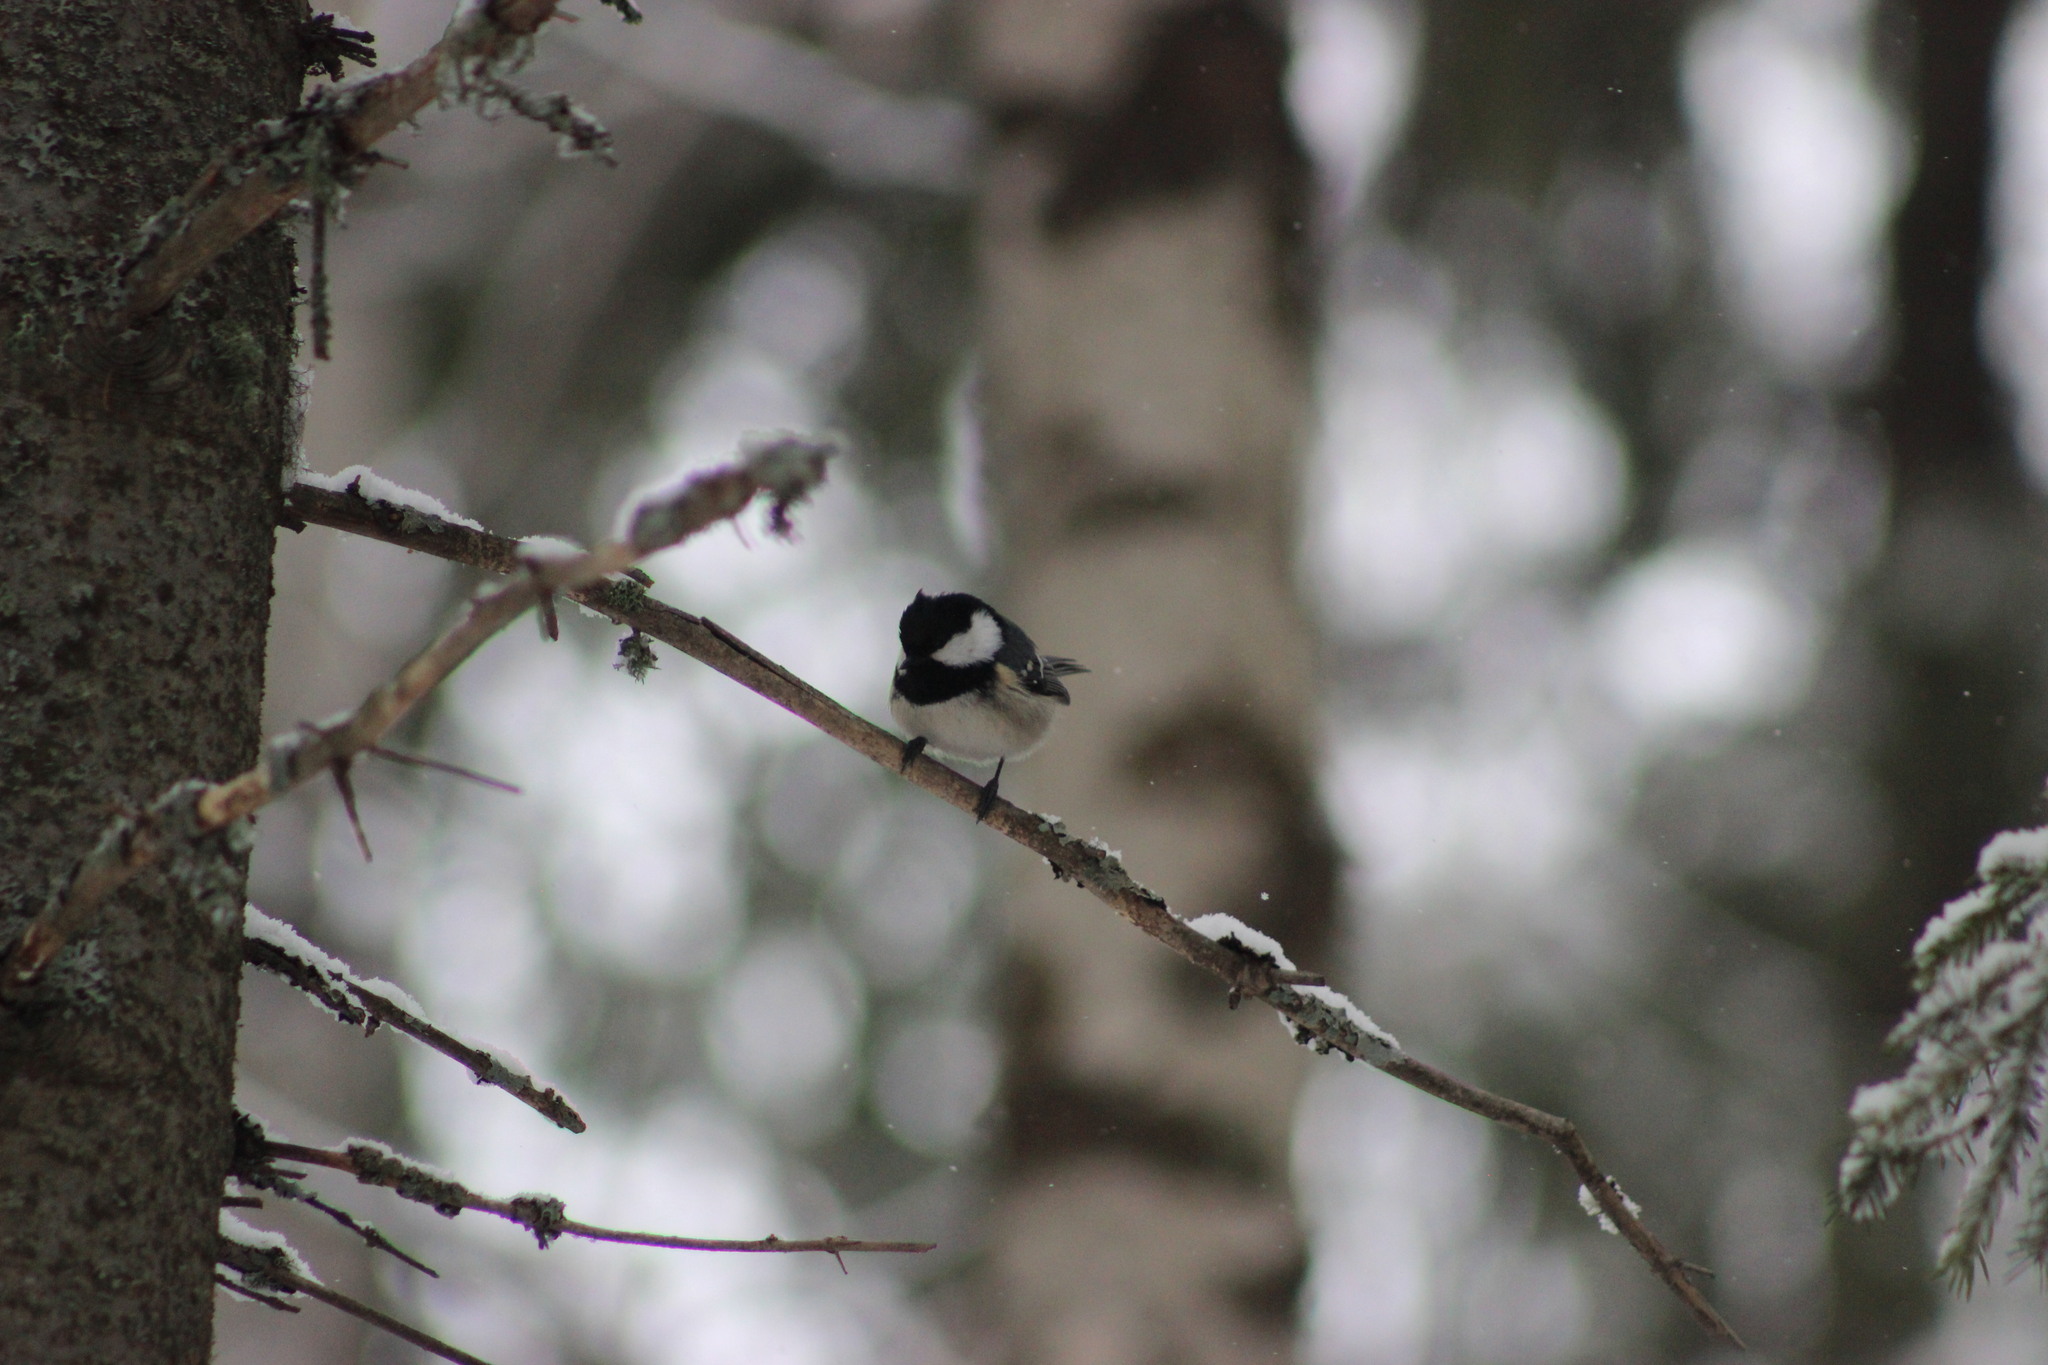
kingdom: Animalia
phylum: Chordata
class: Aves
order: Passeriformes
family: Paridae
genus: Periparus
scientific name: Periparus ater
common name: Coal tit
